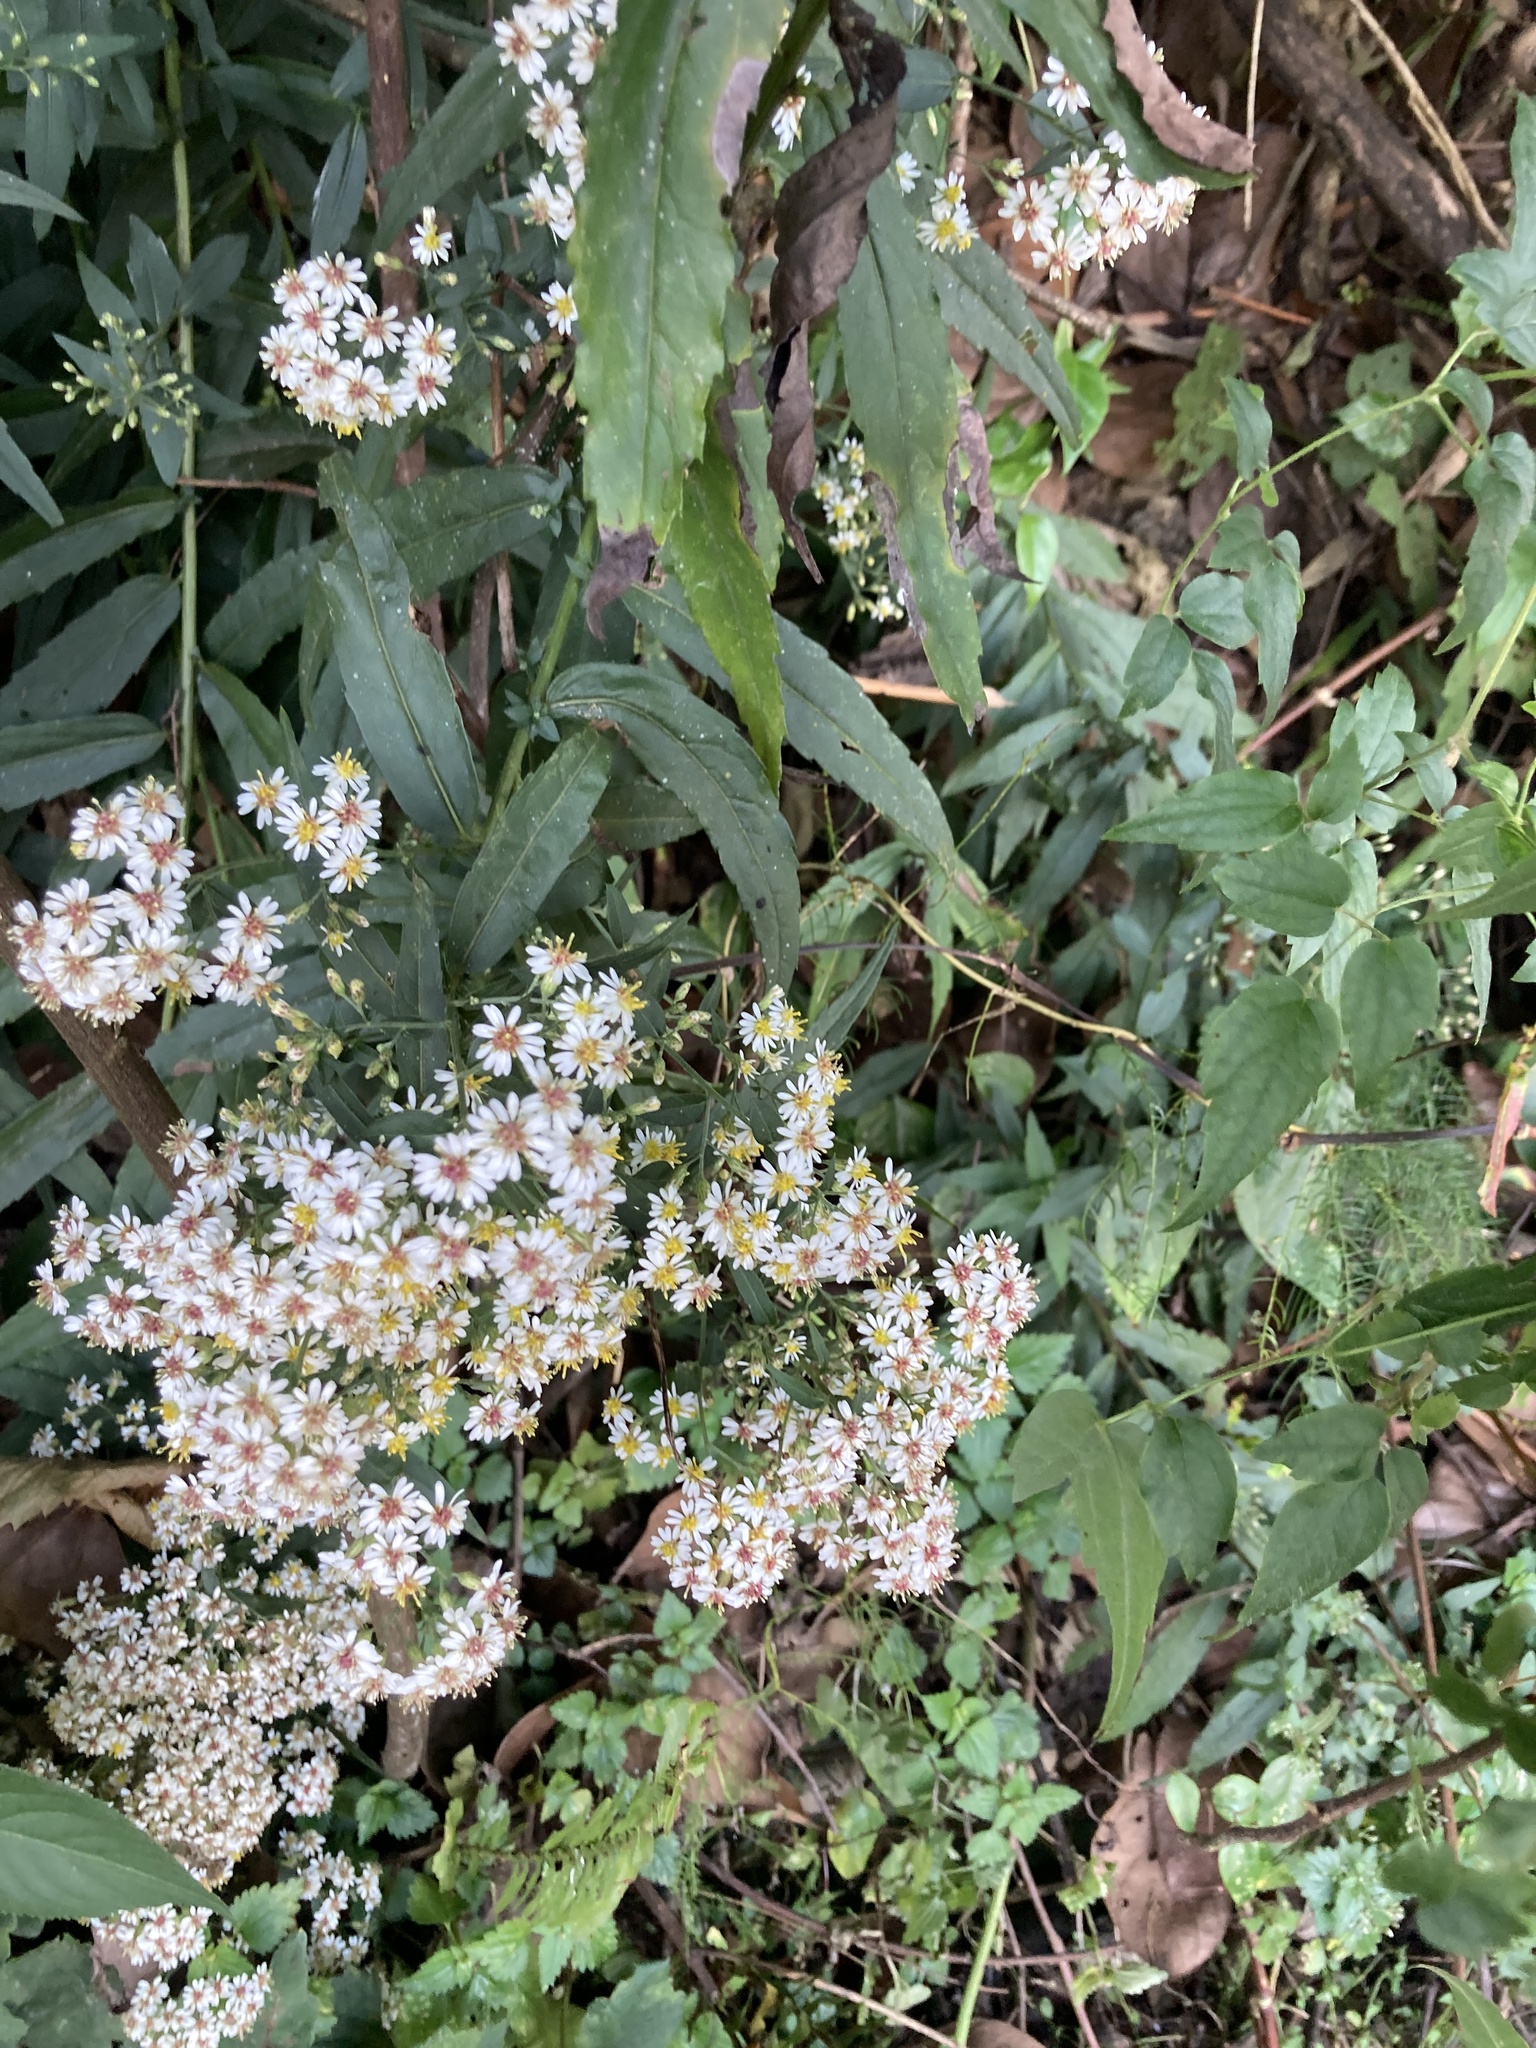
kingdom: Plantae
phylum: Tracheophyta
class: Magnoliopsida
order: Asterales
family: Asteraceae
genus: Aster
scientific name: Aster taiwanensis
